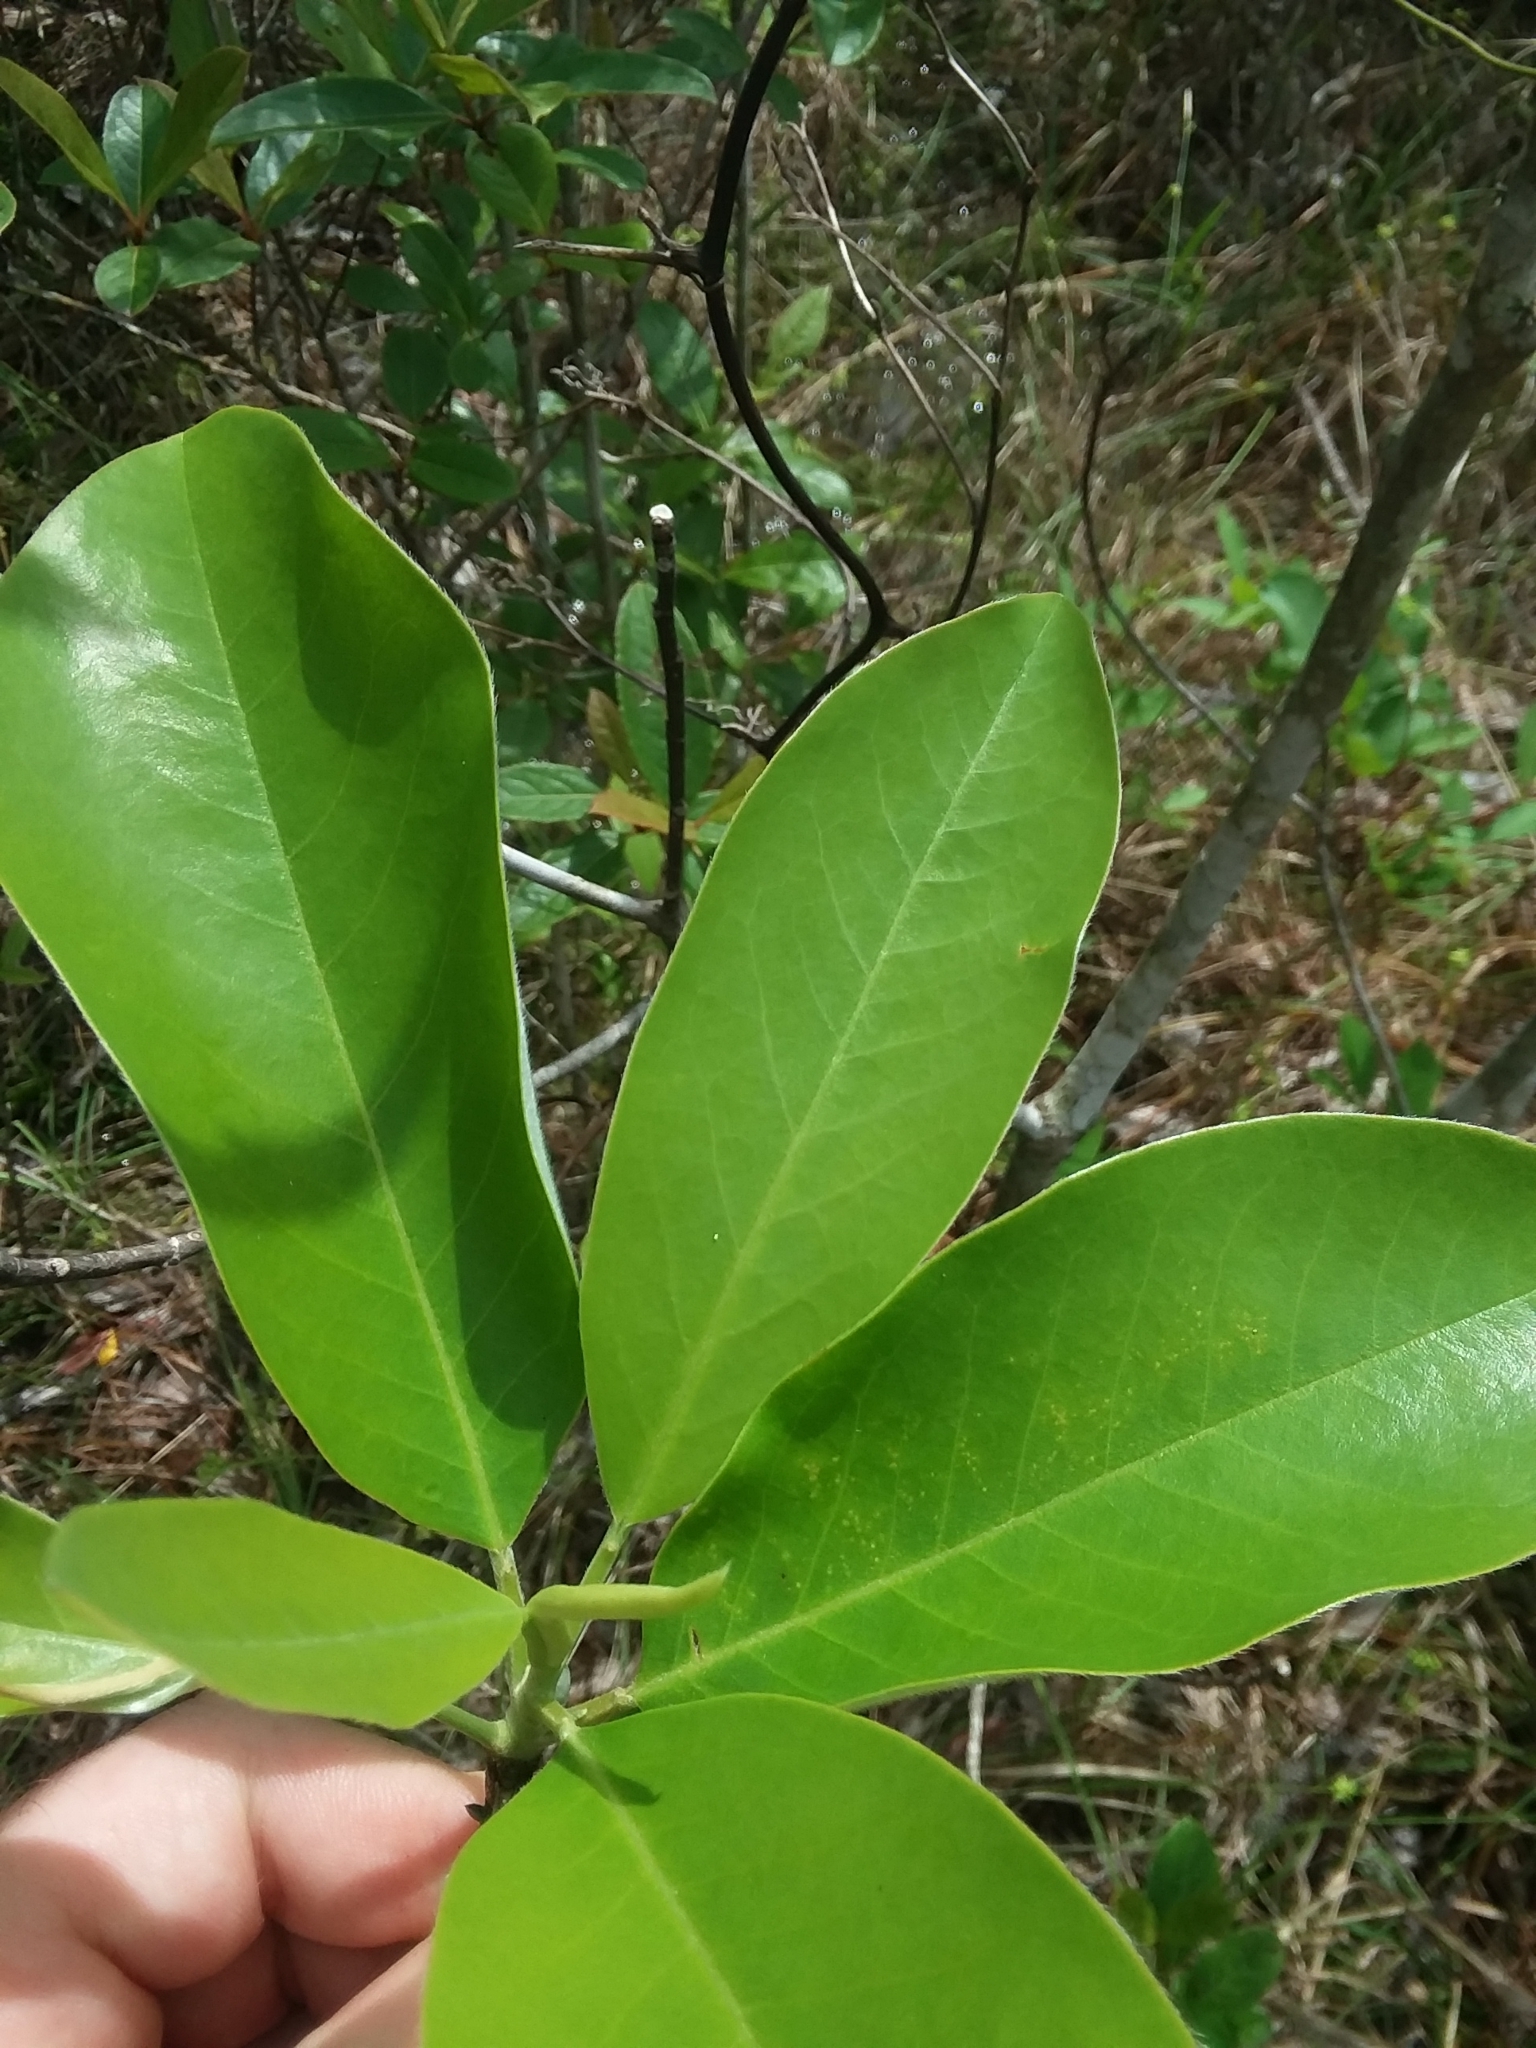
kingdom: Plantae
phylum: Tracheophyta
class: Magnoliopsida
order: Magnoliales
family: Magnoliaceae
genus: Magnolia
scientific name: Magnolia virginiana
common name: Swamp bay
